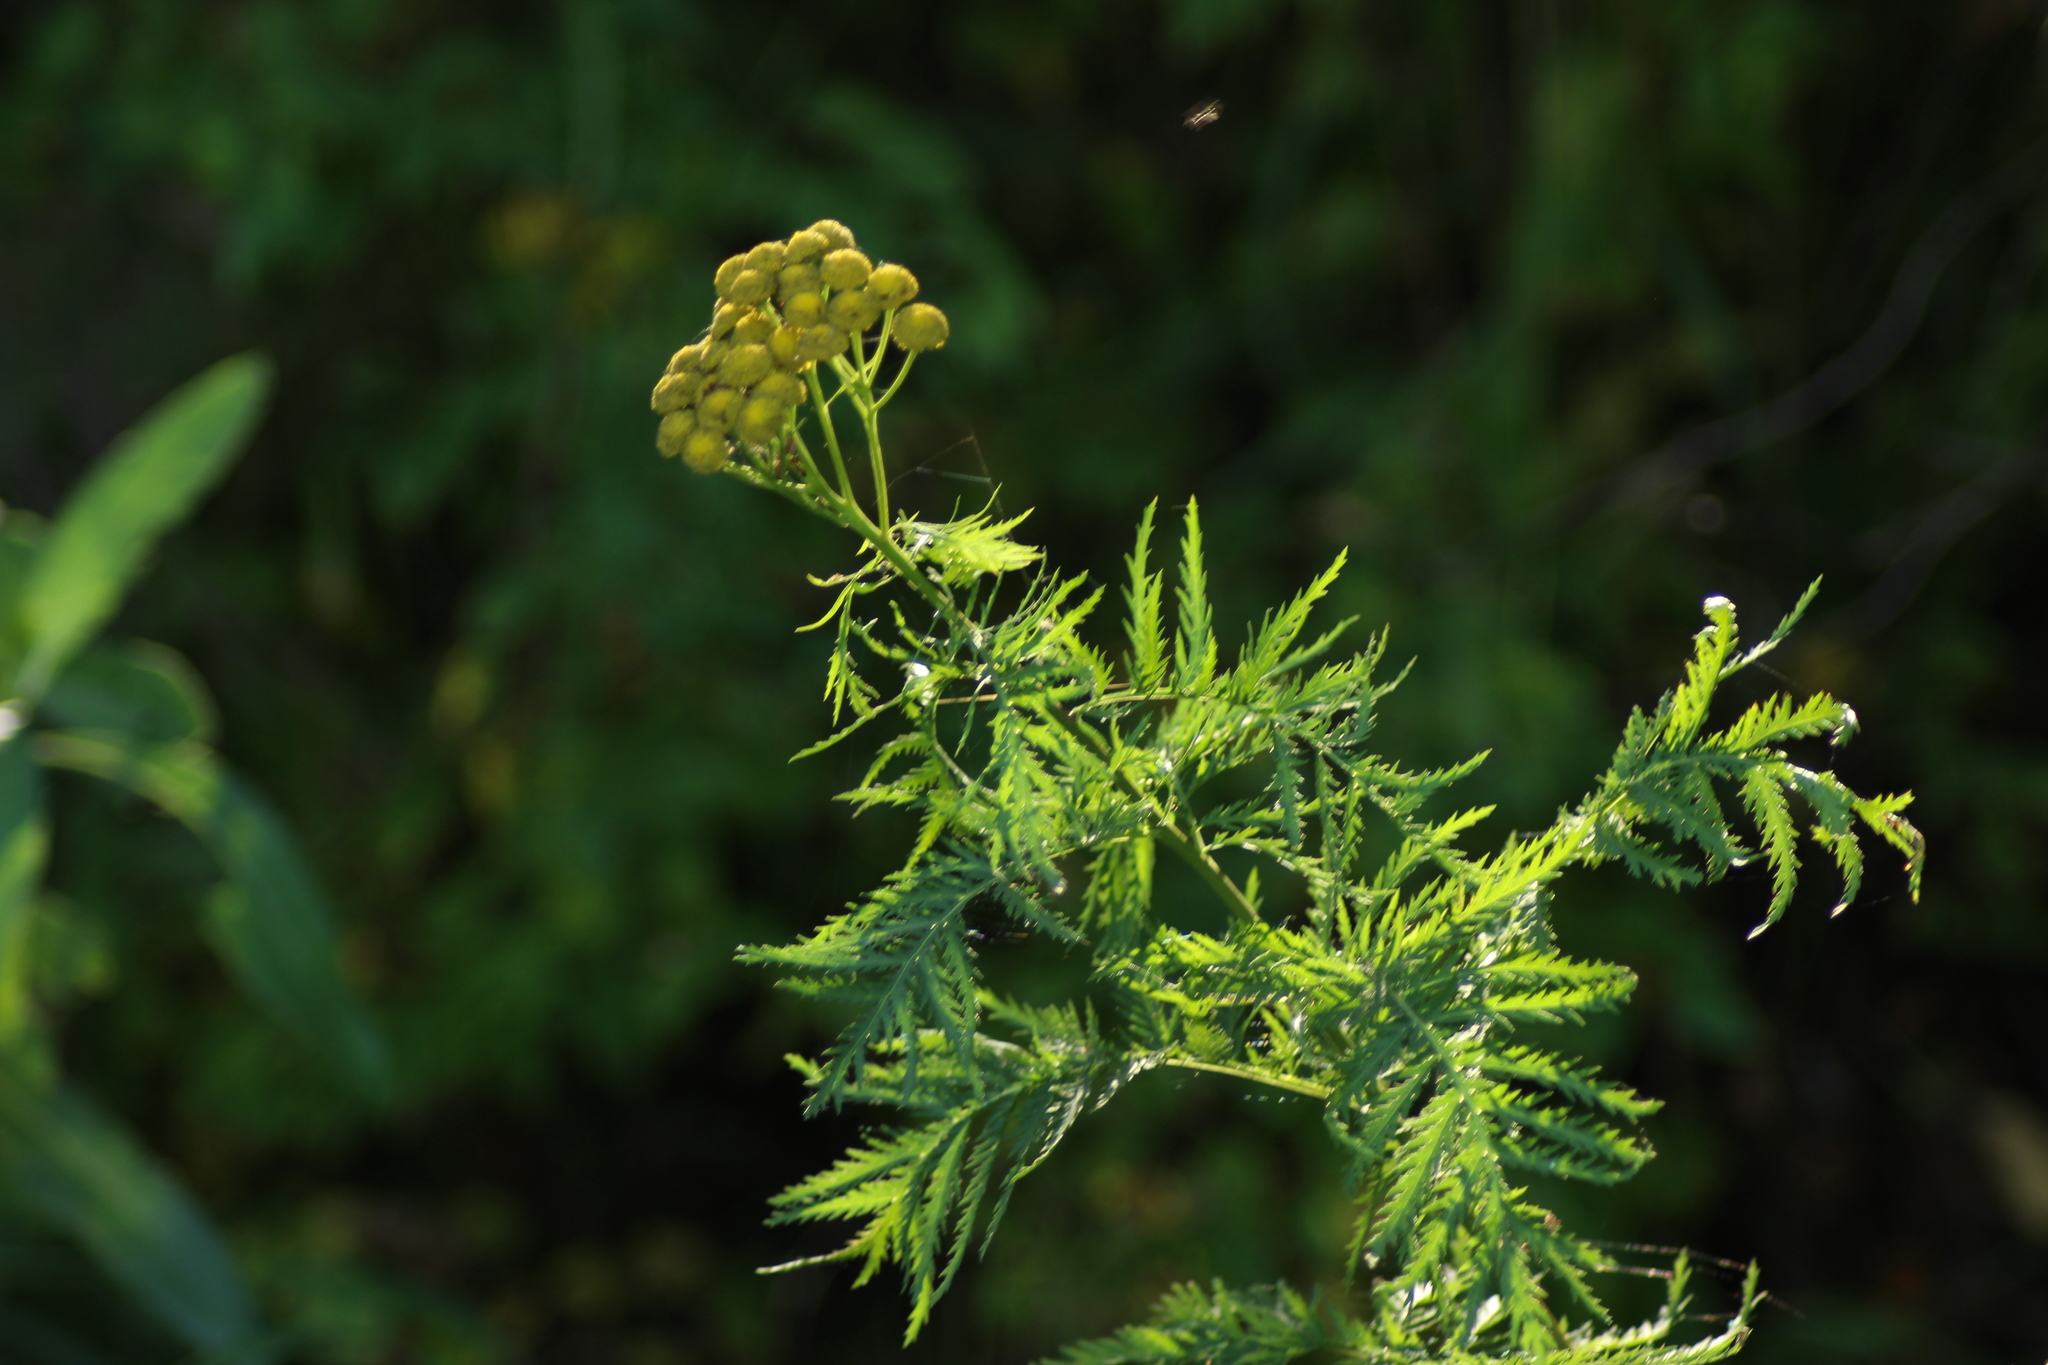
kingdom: Plantae
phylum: Tracheophyta
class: Magnoliopsida
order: Asterales
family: Asteraceae
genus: Tanacetum
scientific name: Tanacetum vulgare
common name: Common tansy
